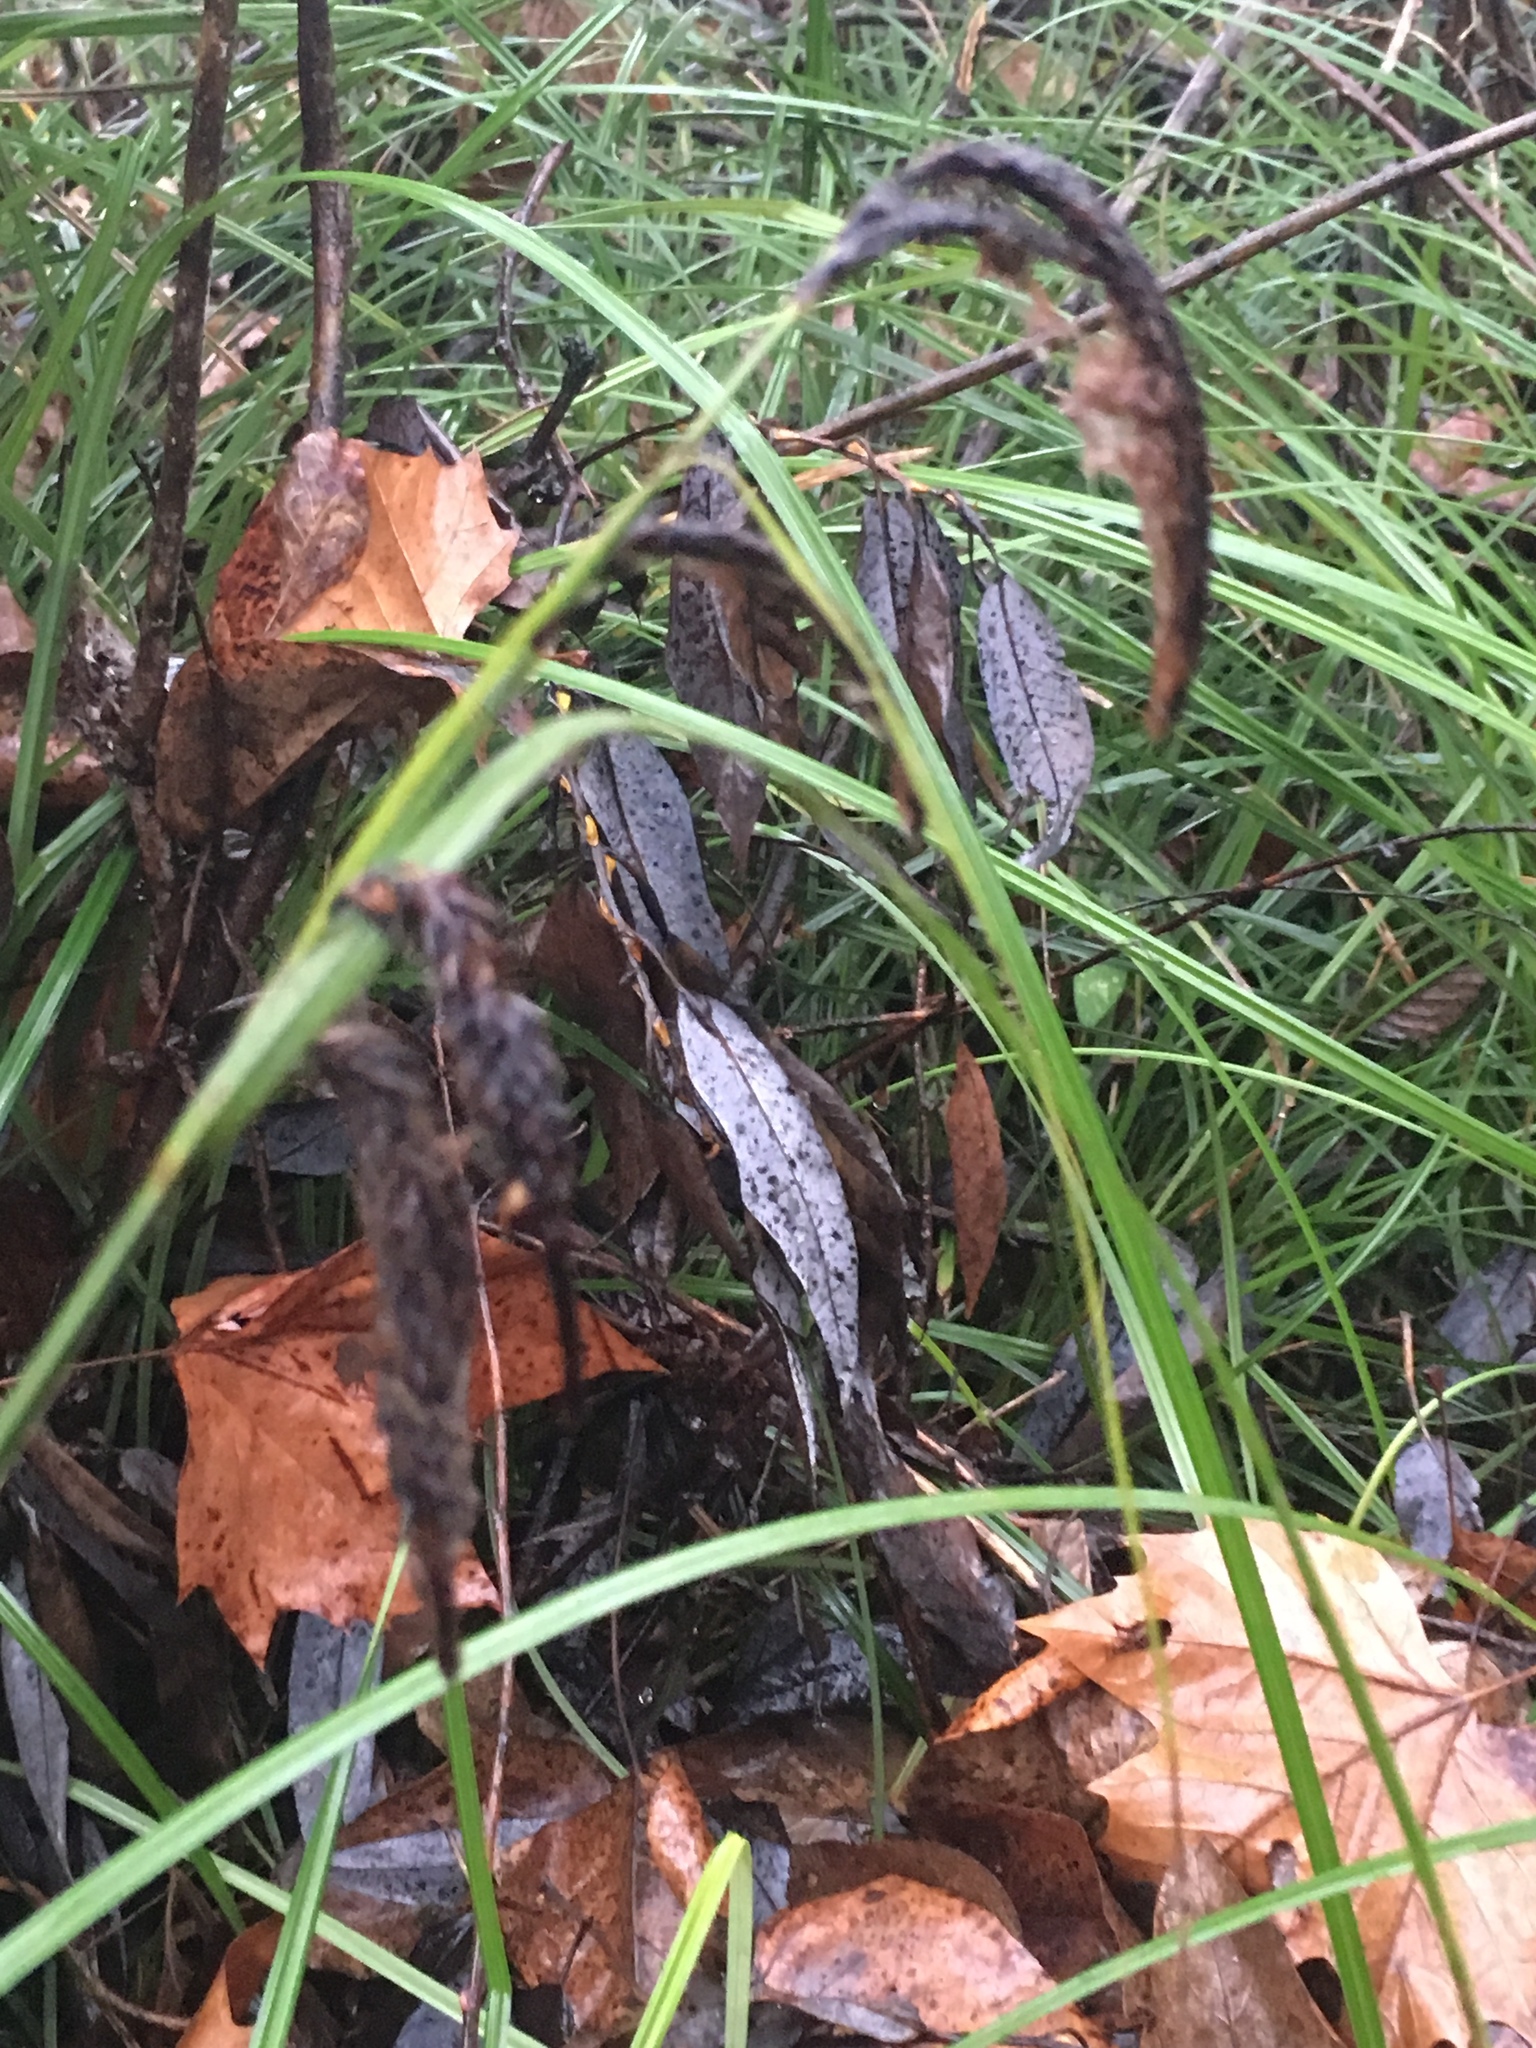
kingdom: Plantae
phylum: Tracheophyta
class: Liliopsida
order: Poales
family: Cyperaceae
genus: Carex
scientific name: Carex obnupta
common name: Slough sedge
